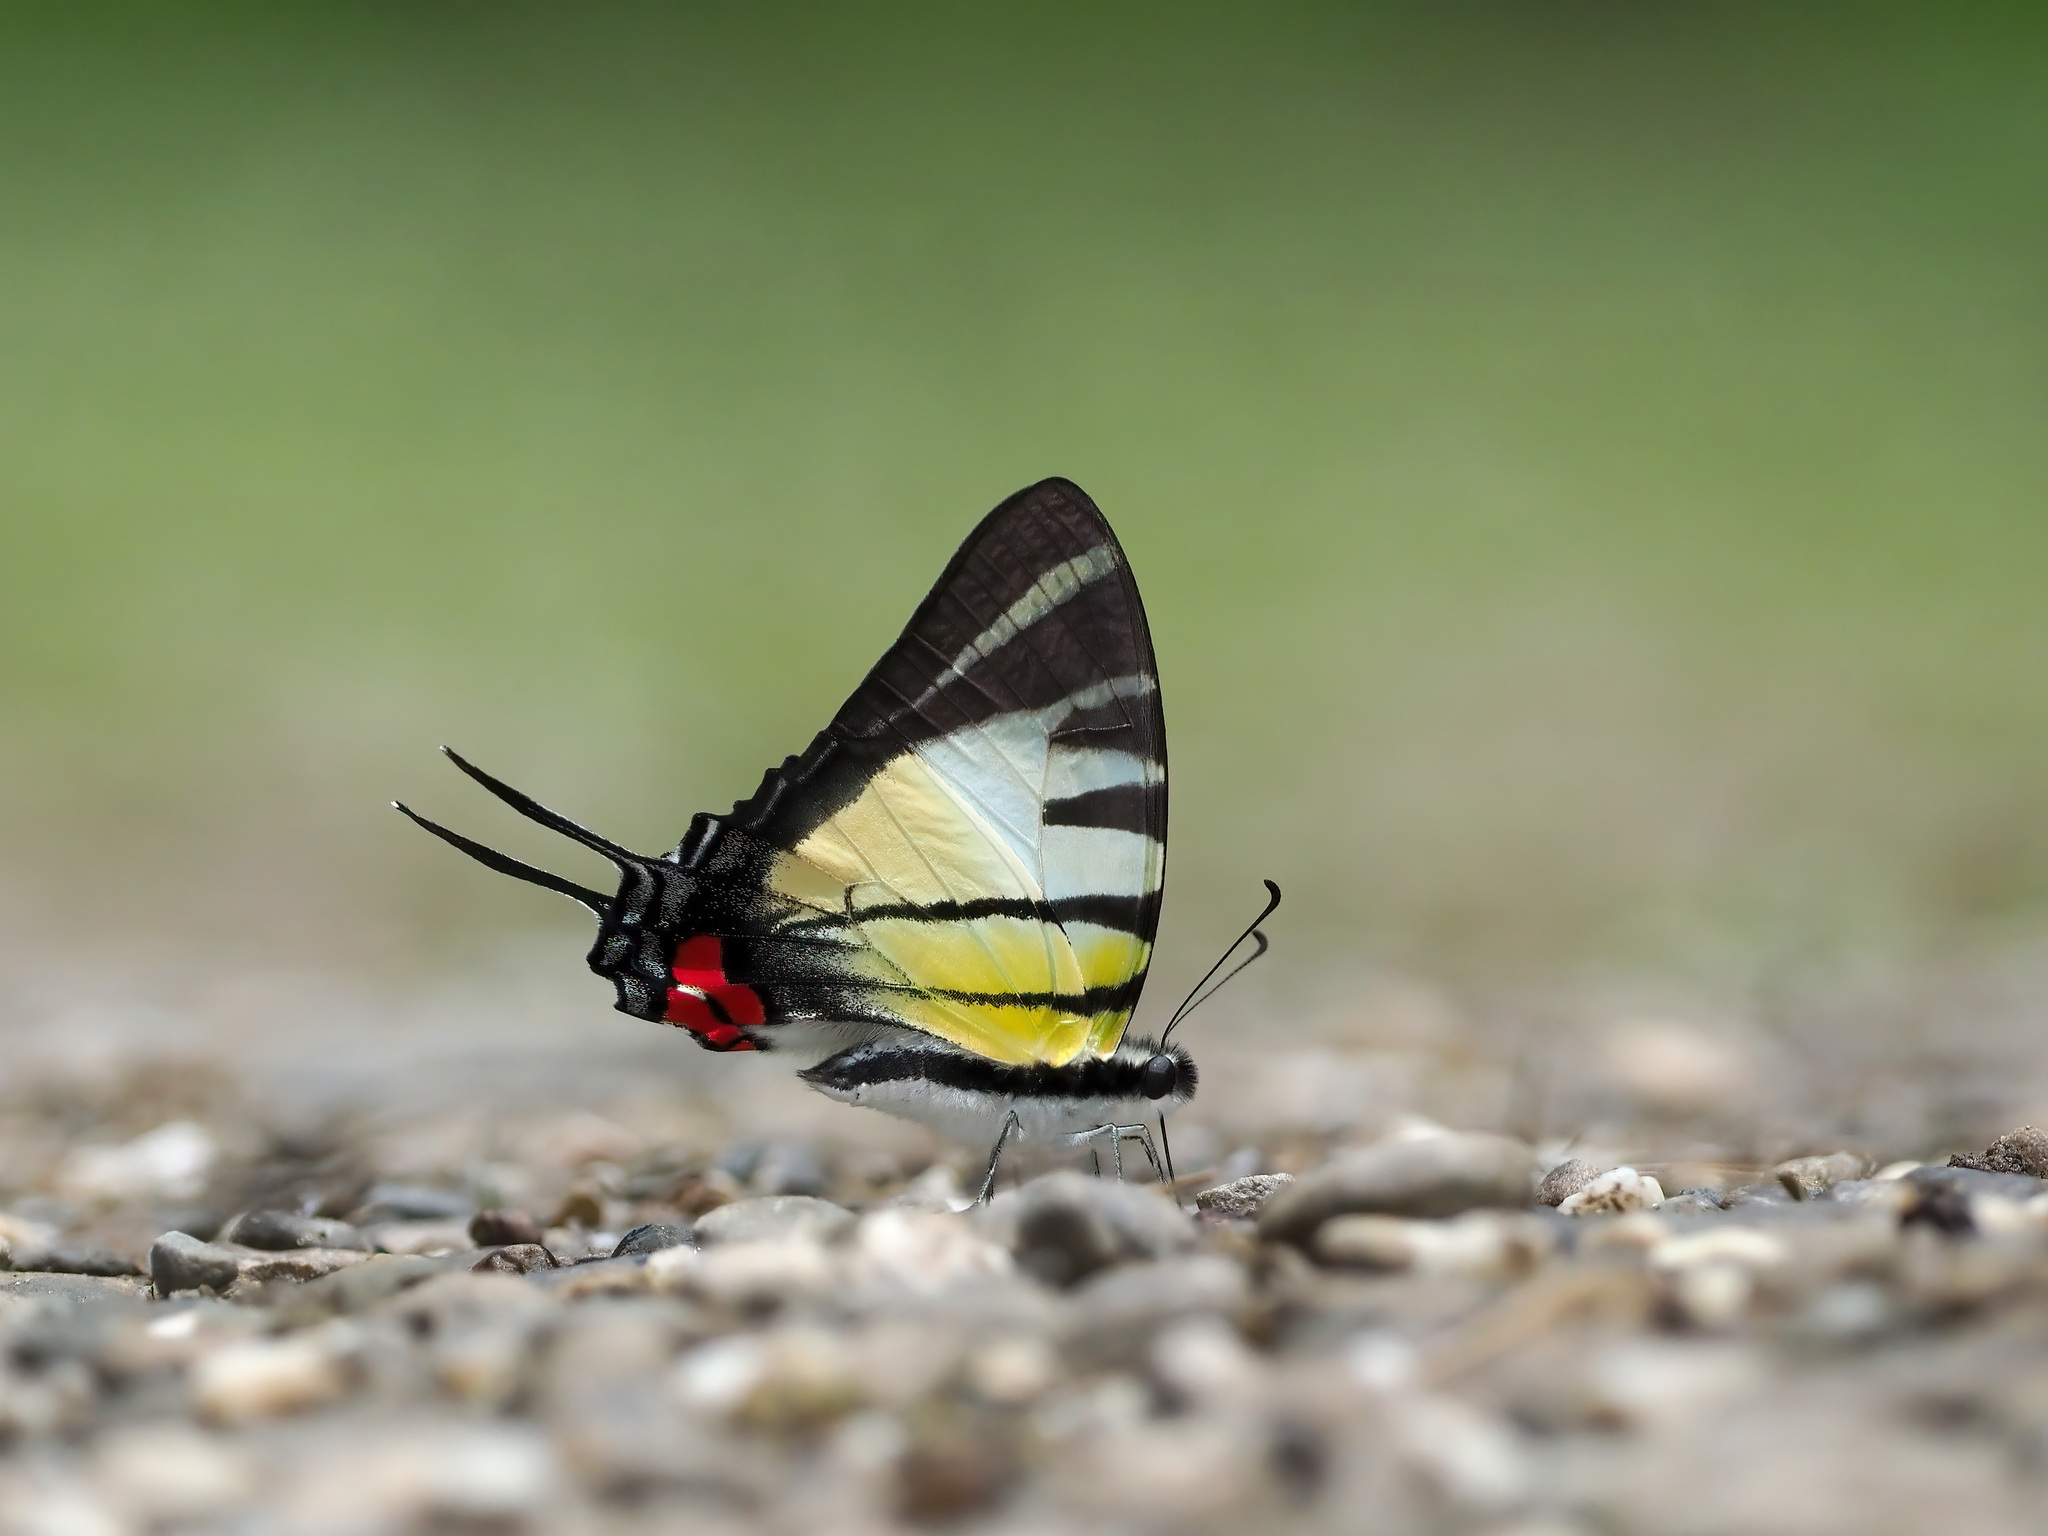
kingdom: Animalia
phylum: Arthropoda
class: Insecta
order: Lepidoptera
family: Papilionidae
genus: Graphium
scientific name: Graphium stratiotes
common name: Kinabalu swordtail
